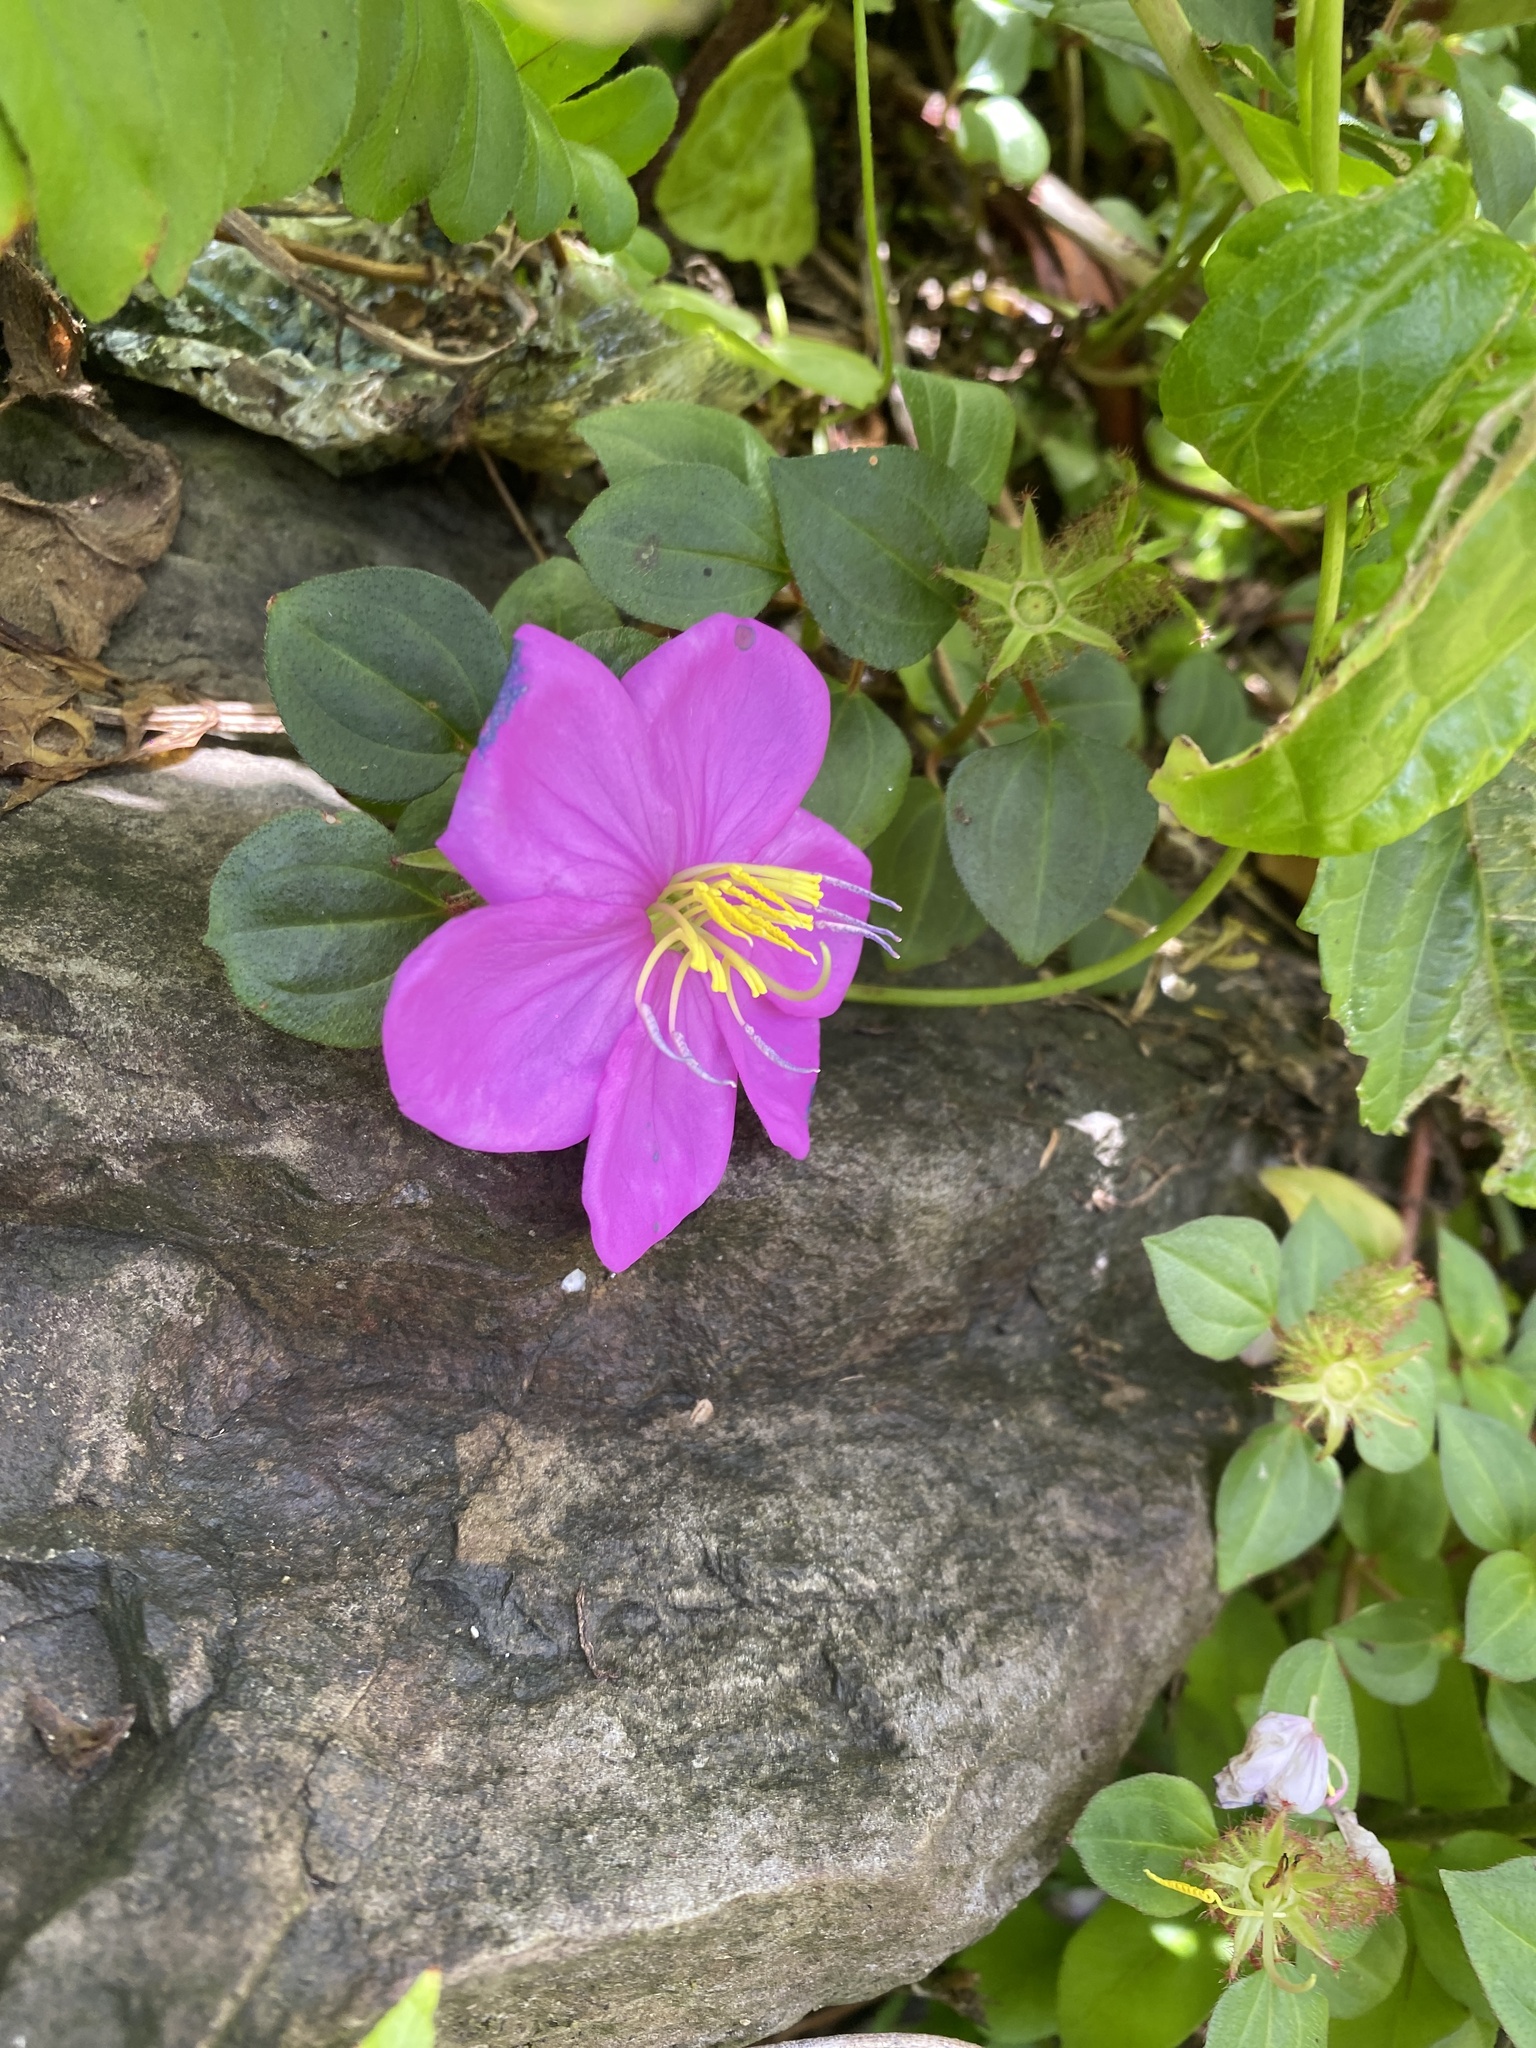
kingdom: Plantae
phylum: Tracheophyta
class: Magnoliopsida
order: Myrtales
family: Melastomataceae
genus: Heterotis
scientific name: Heterotis rotundifolia
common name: Pinklady
